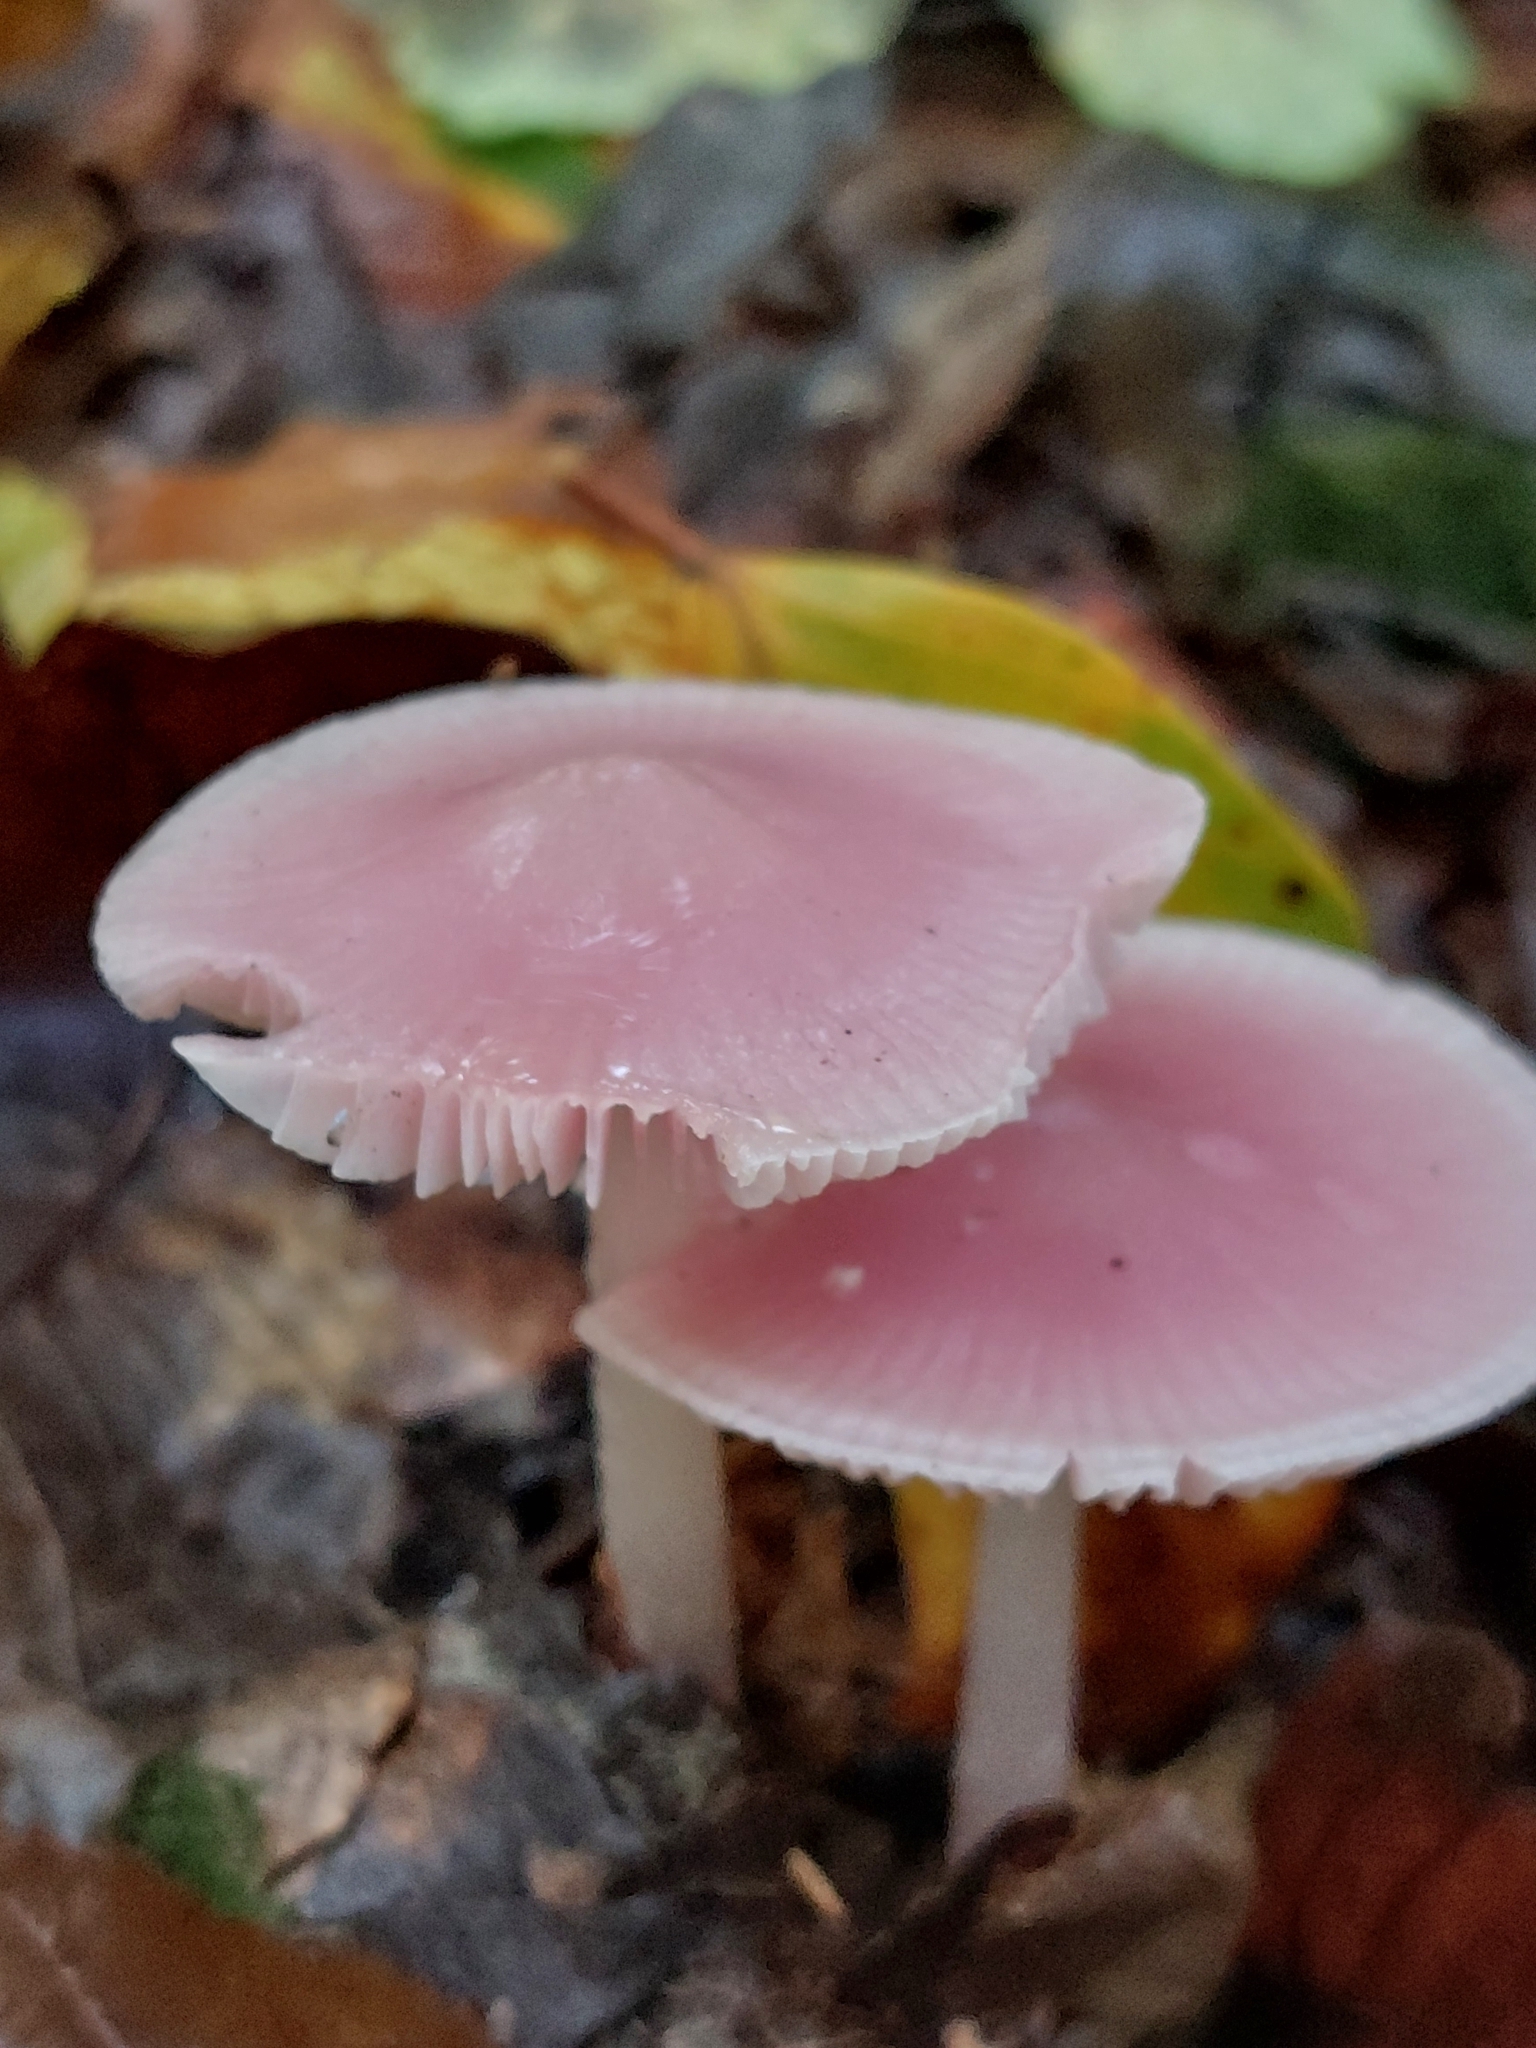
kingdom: Fungi
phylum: Basidiomycota
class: Agaricomycetes
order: Agaricales
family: Mycenaceae
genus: Mycena
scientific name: Mycena rosea
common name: Rosy bonnet
